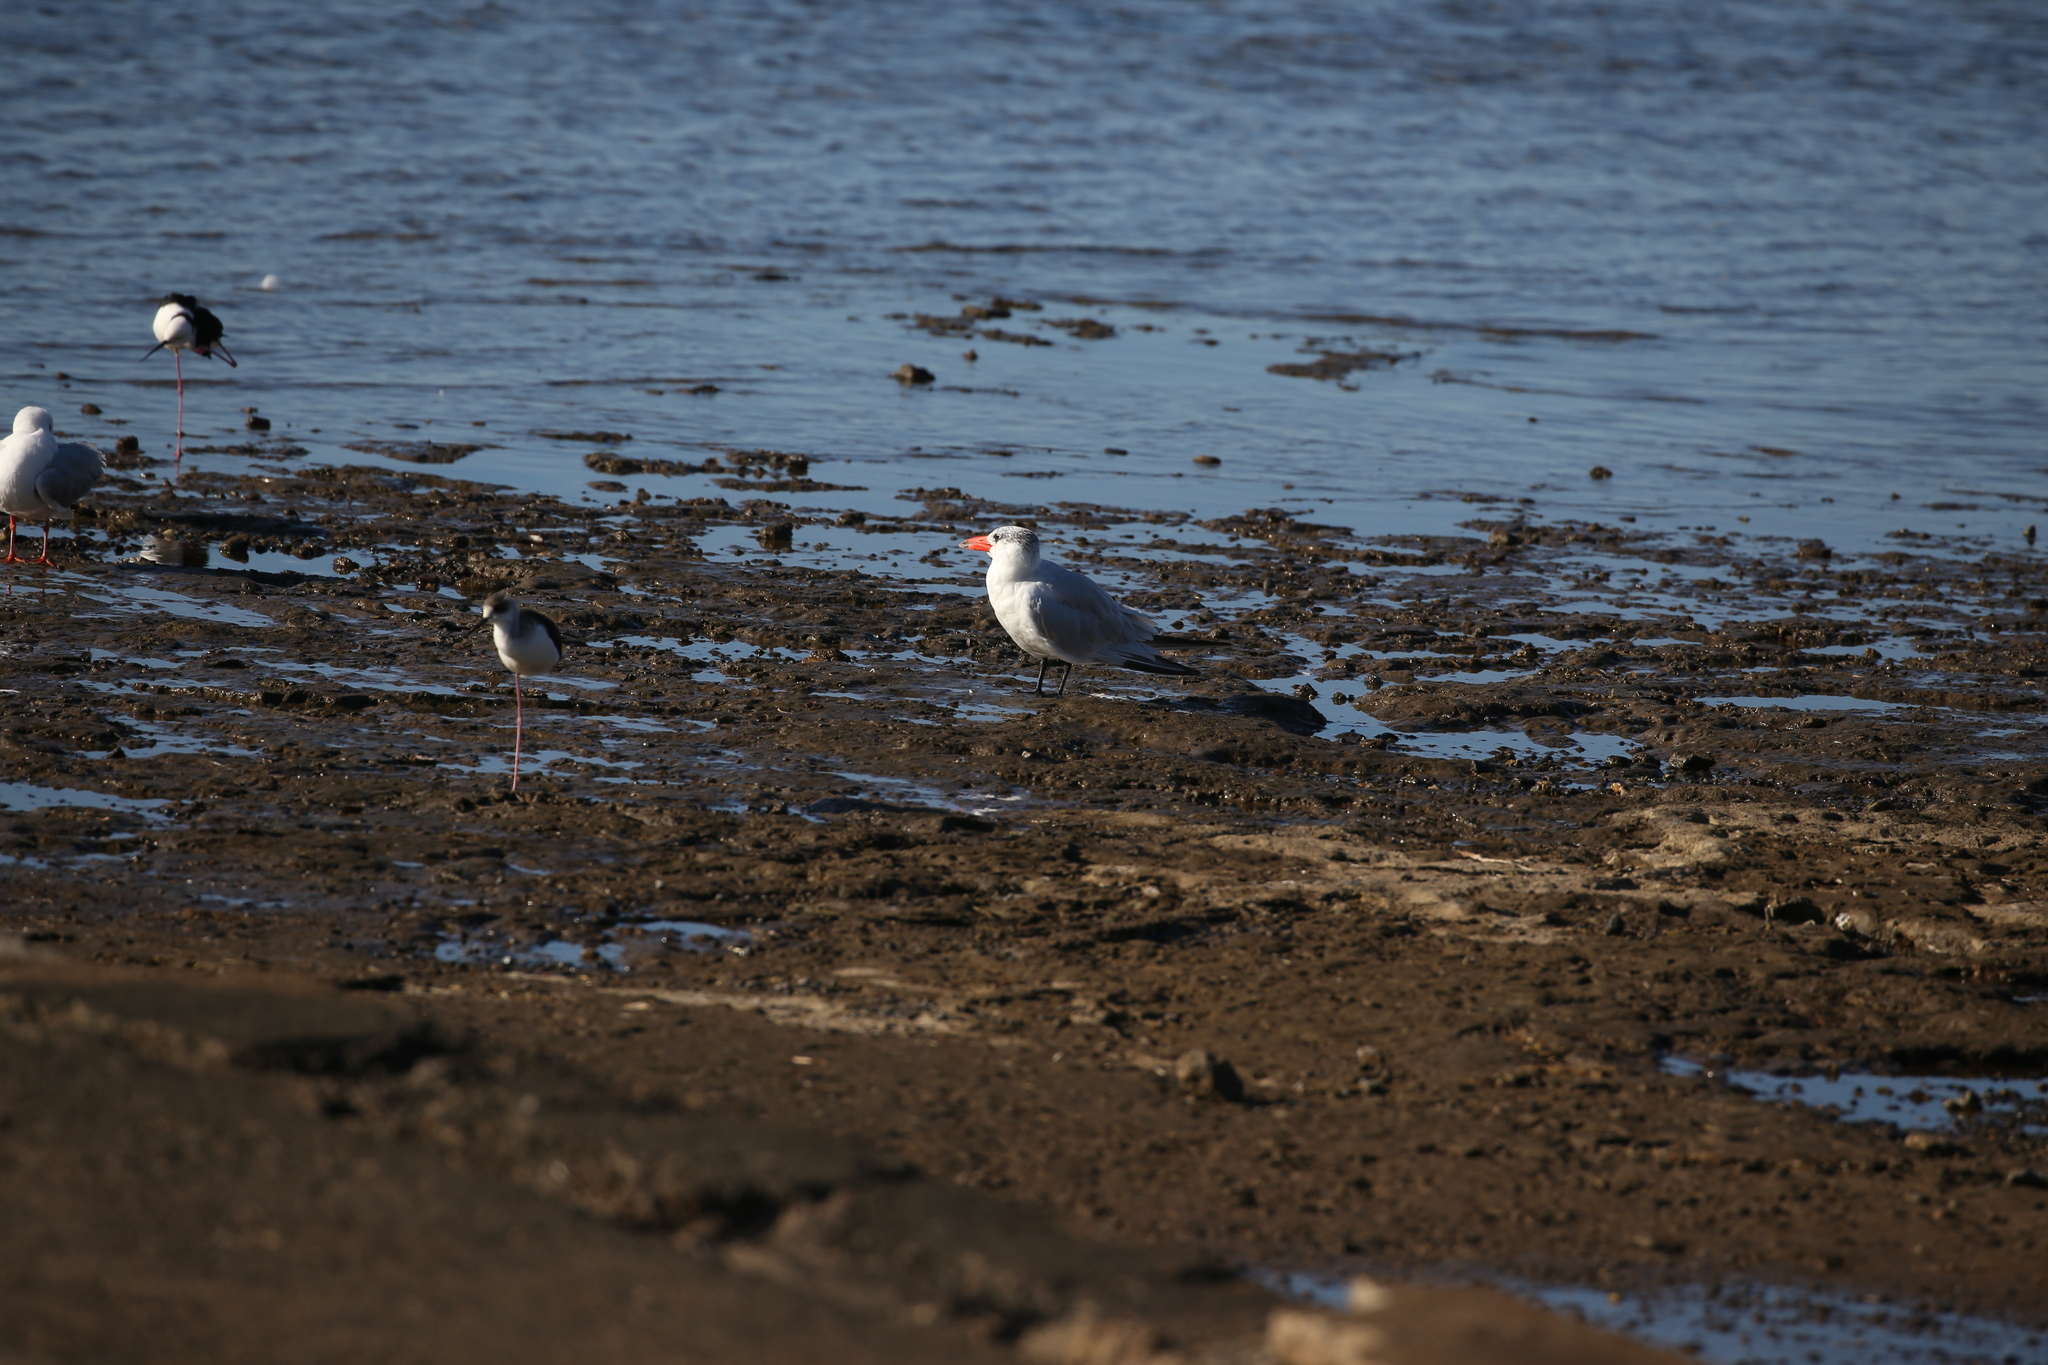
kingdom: Animalia
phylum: Chordata
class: Aves
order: Charadriiformes
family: Laridae
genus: Hydroprogne
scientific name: Hydroprogne caspia
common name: Caspian tern
